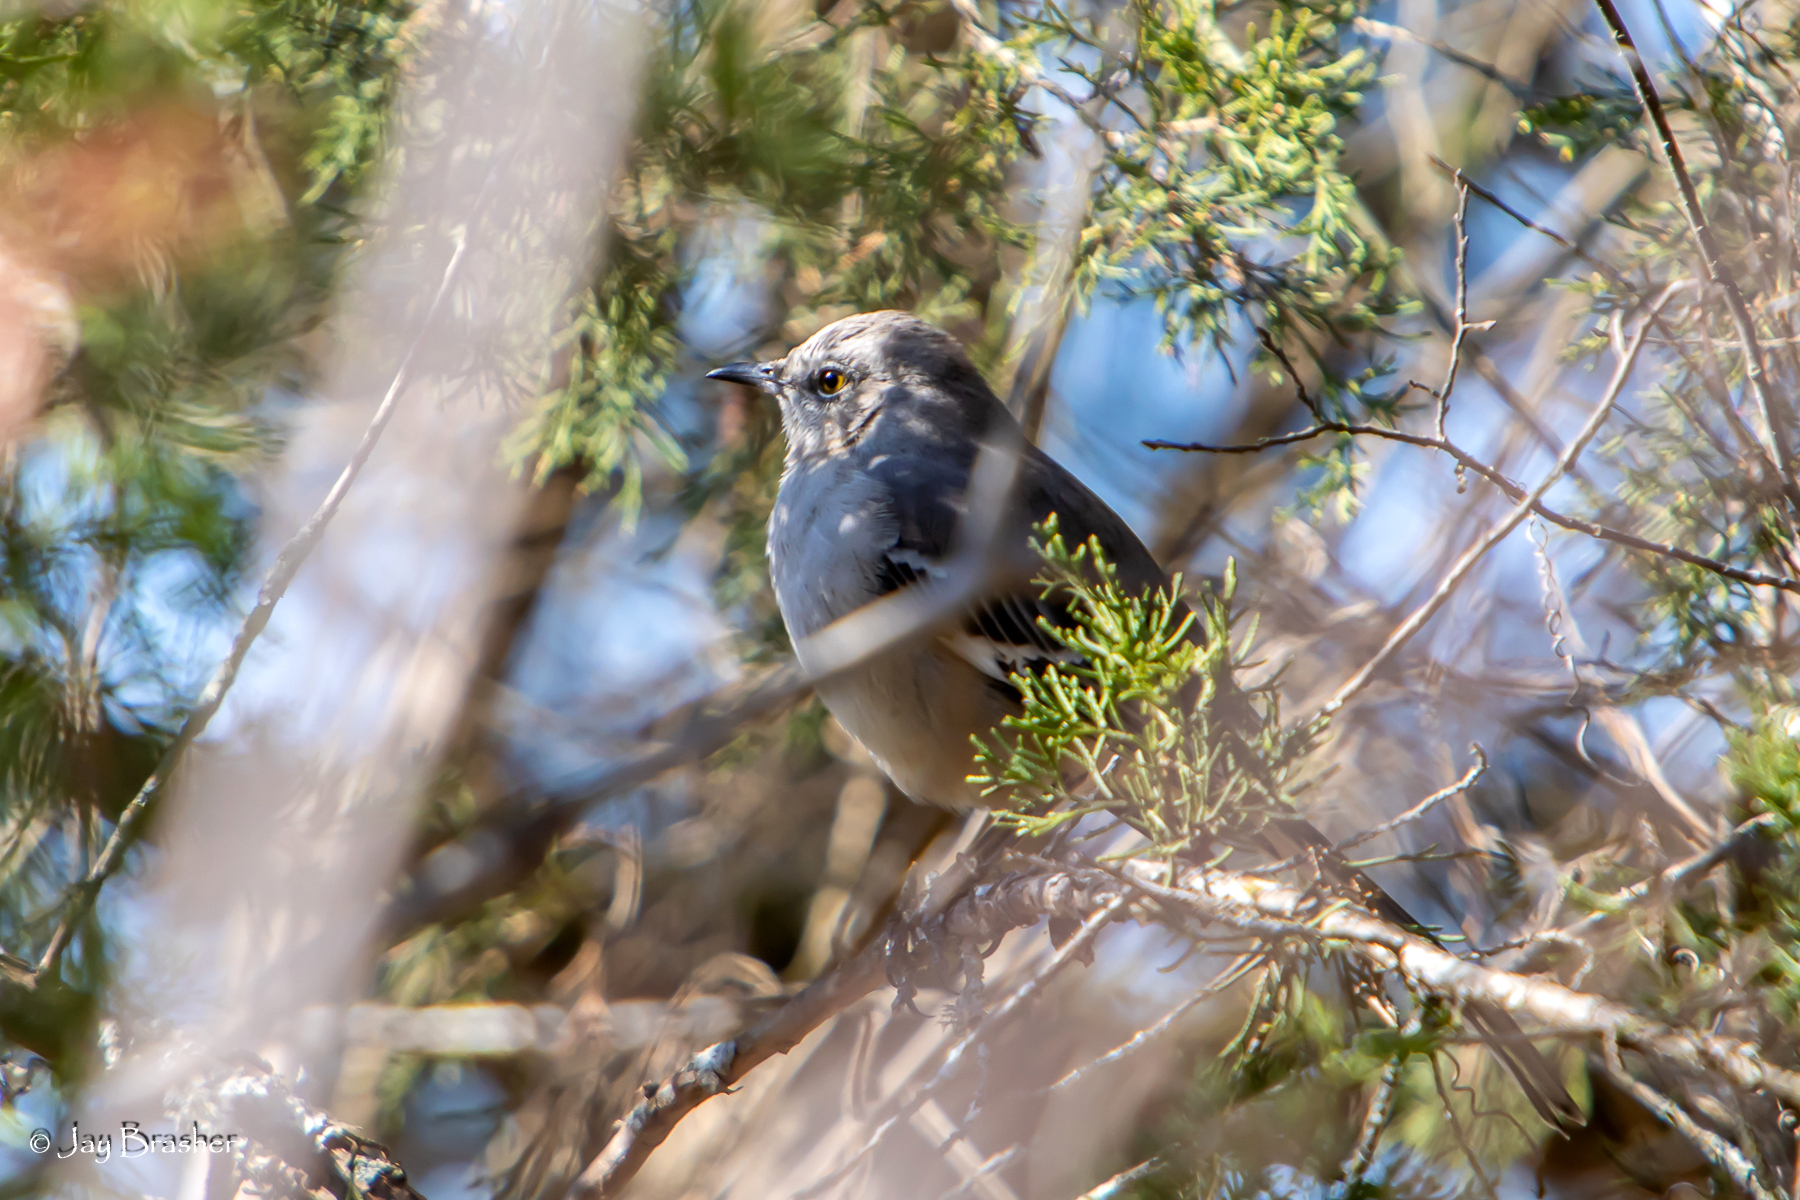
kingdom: Animalia
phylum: Chordata
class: Aves
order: Passeriformes
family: Mimidae
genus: Mimus
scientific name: Mimus polyglottos
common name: Northern mockingbird
